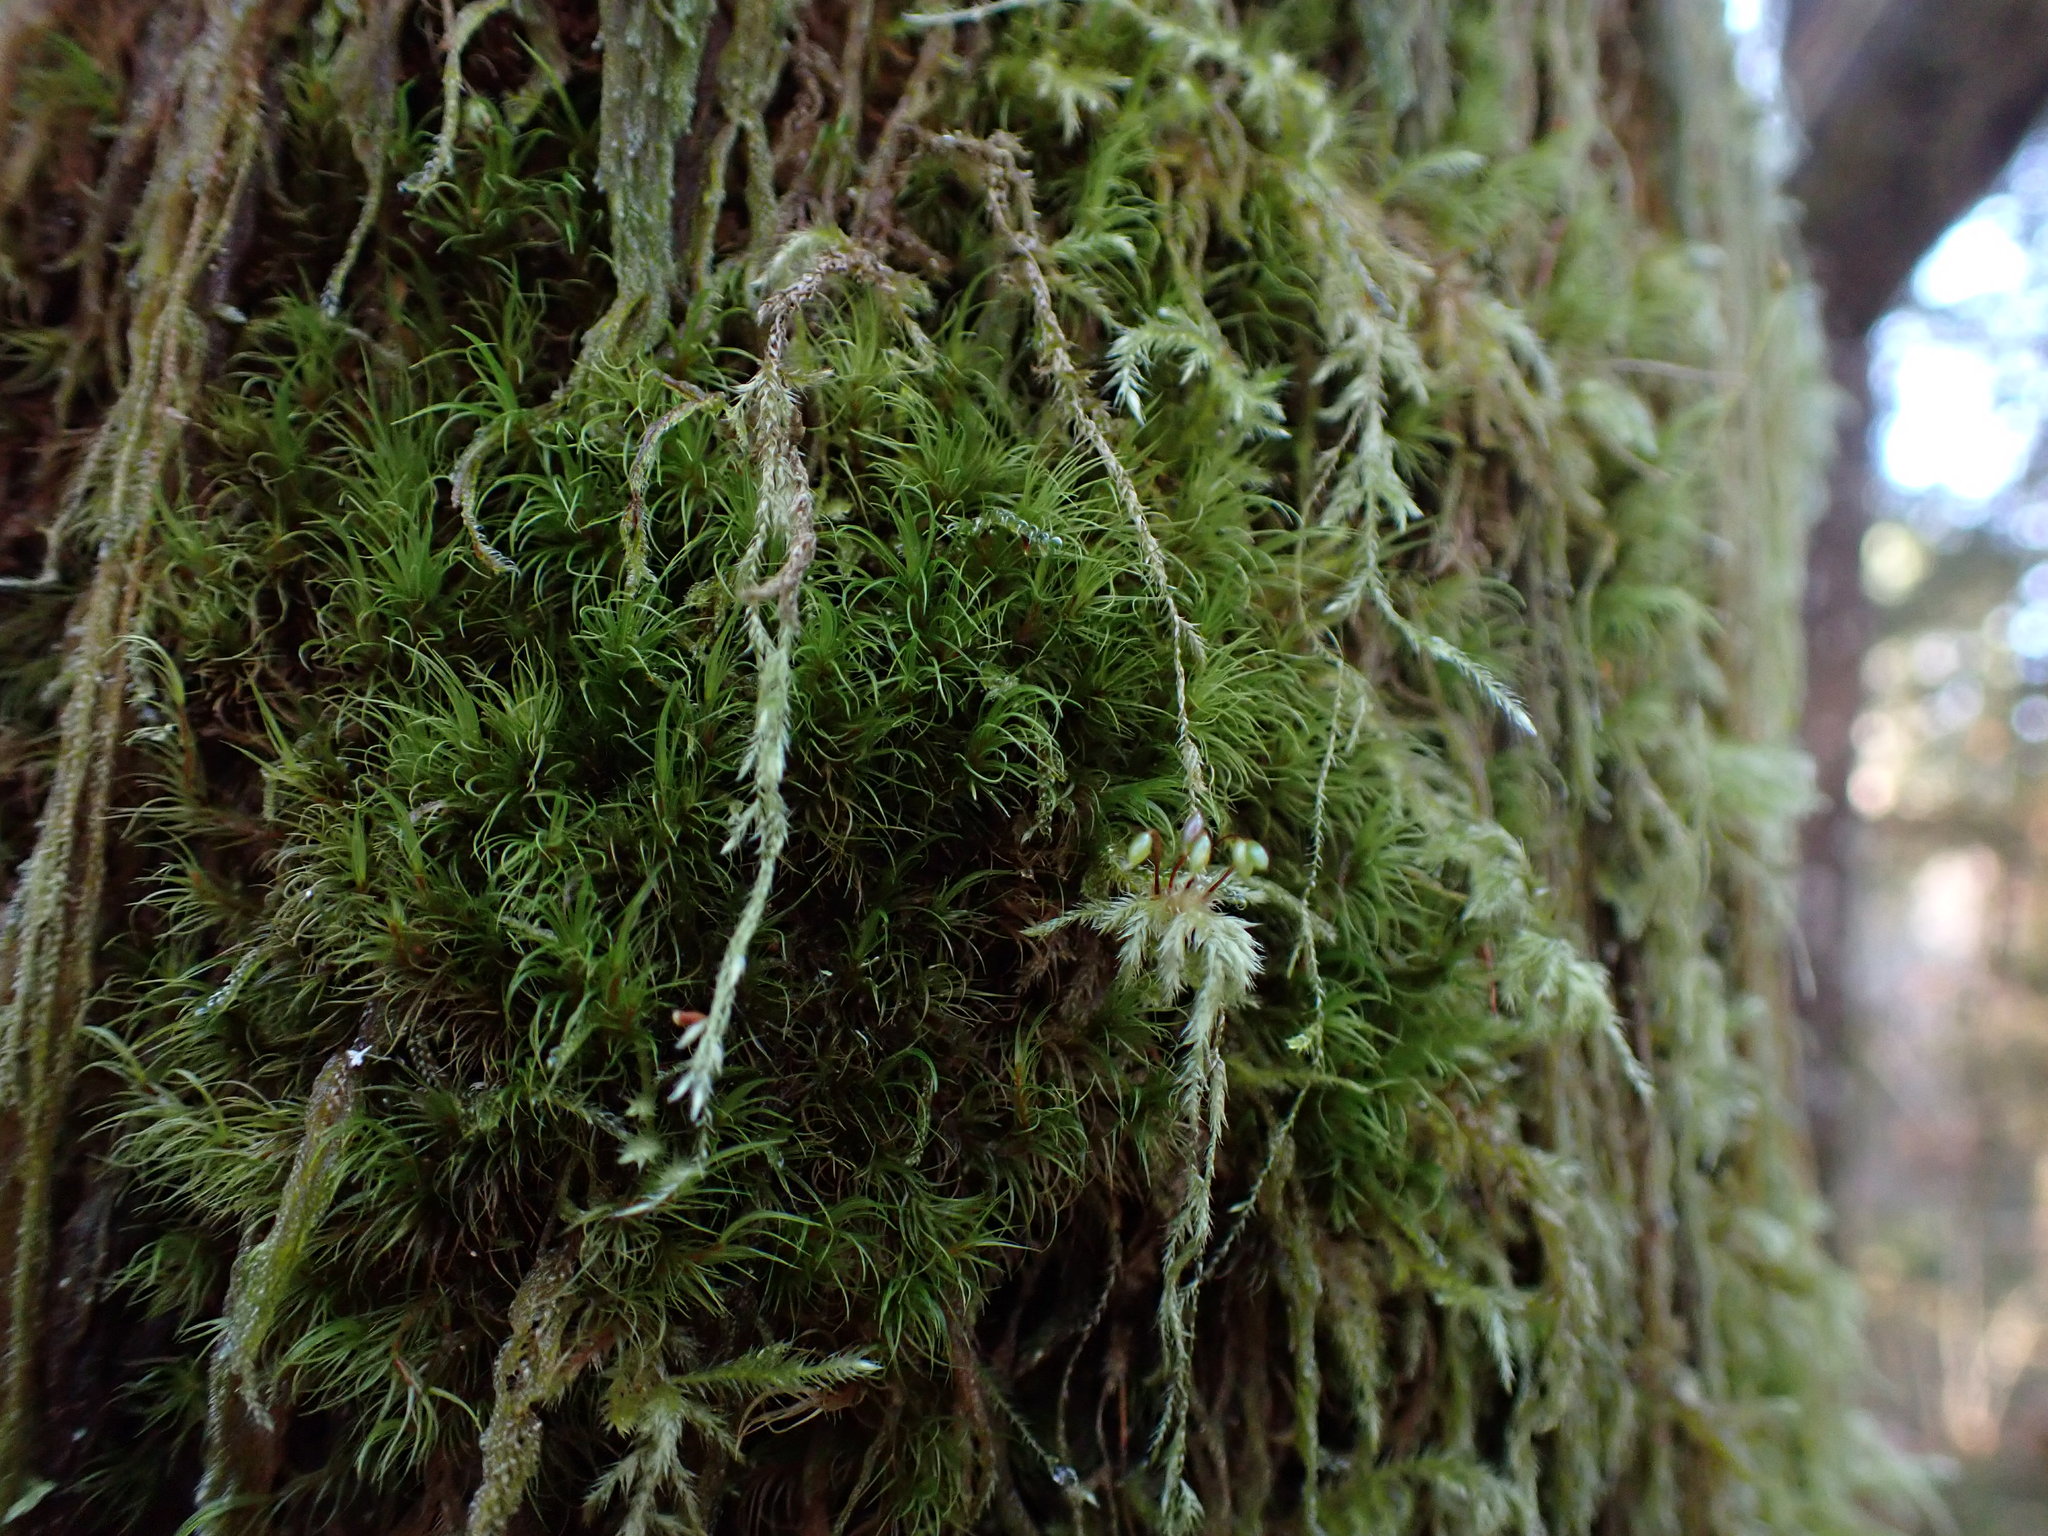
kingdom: Plantae
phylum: Bryophyta
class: Bryopsida
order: Dicranales
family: Dicranaceae
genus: Dicranum
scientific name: Dicranum fuscescens
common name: Curly heron's-bill moss
